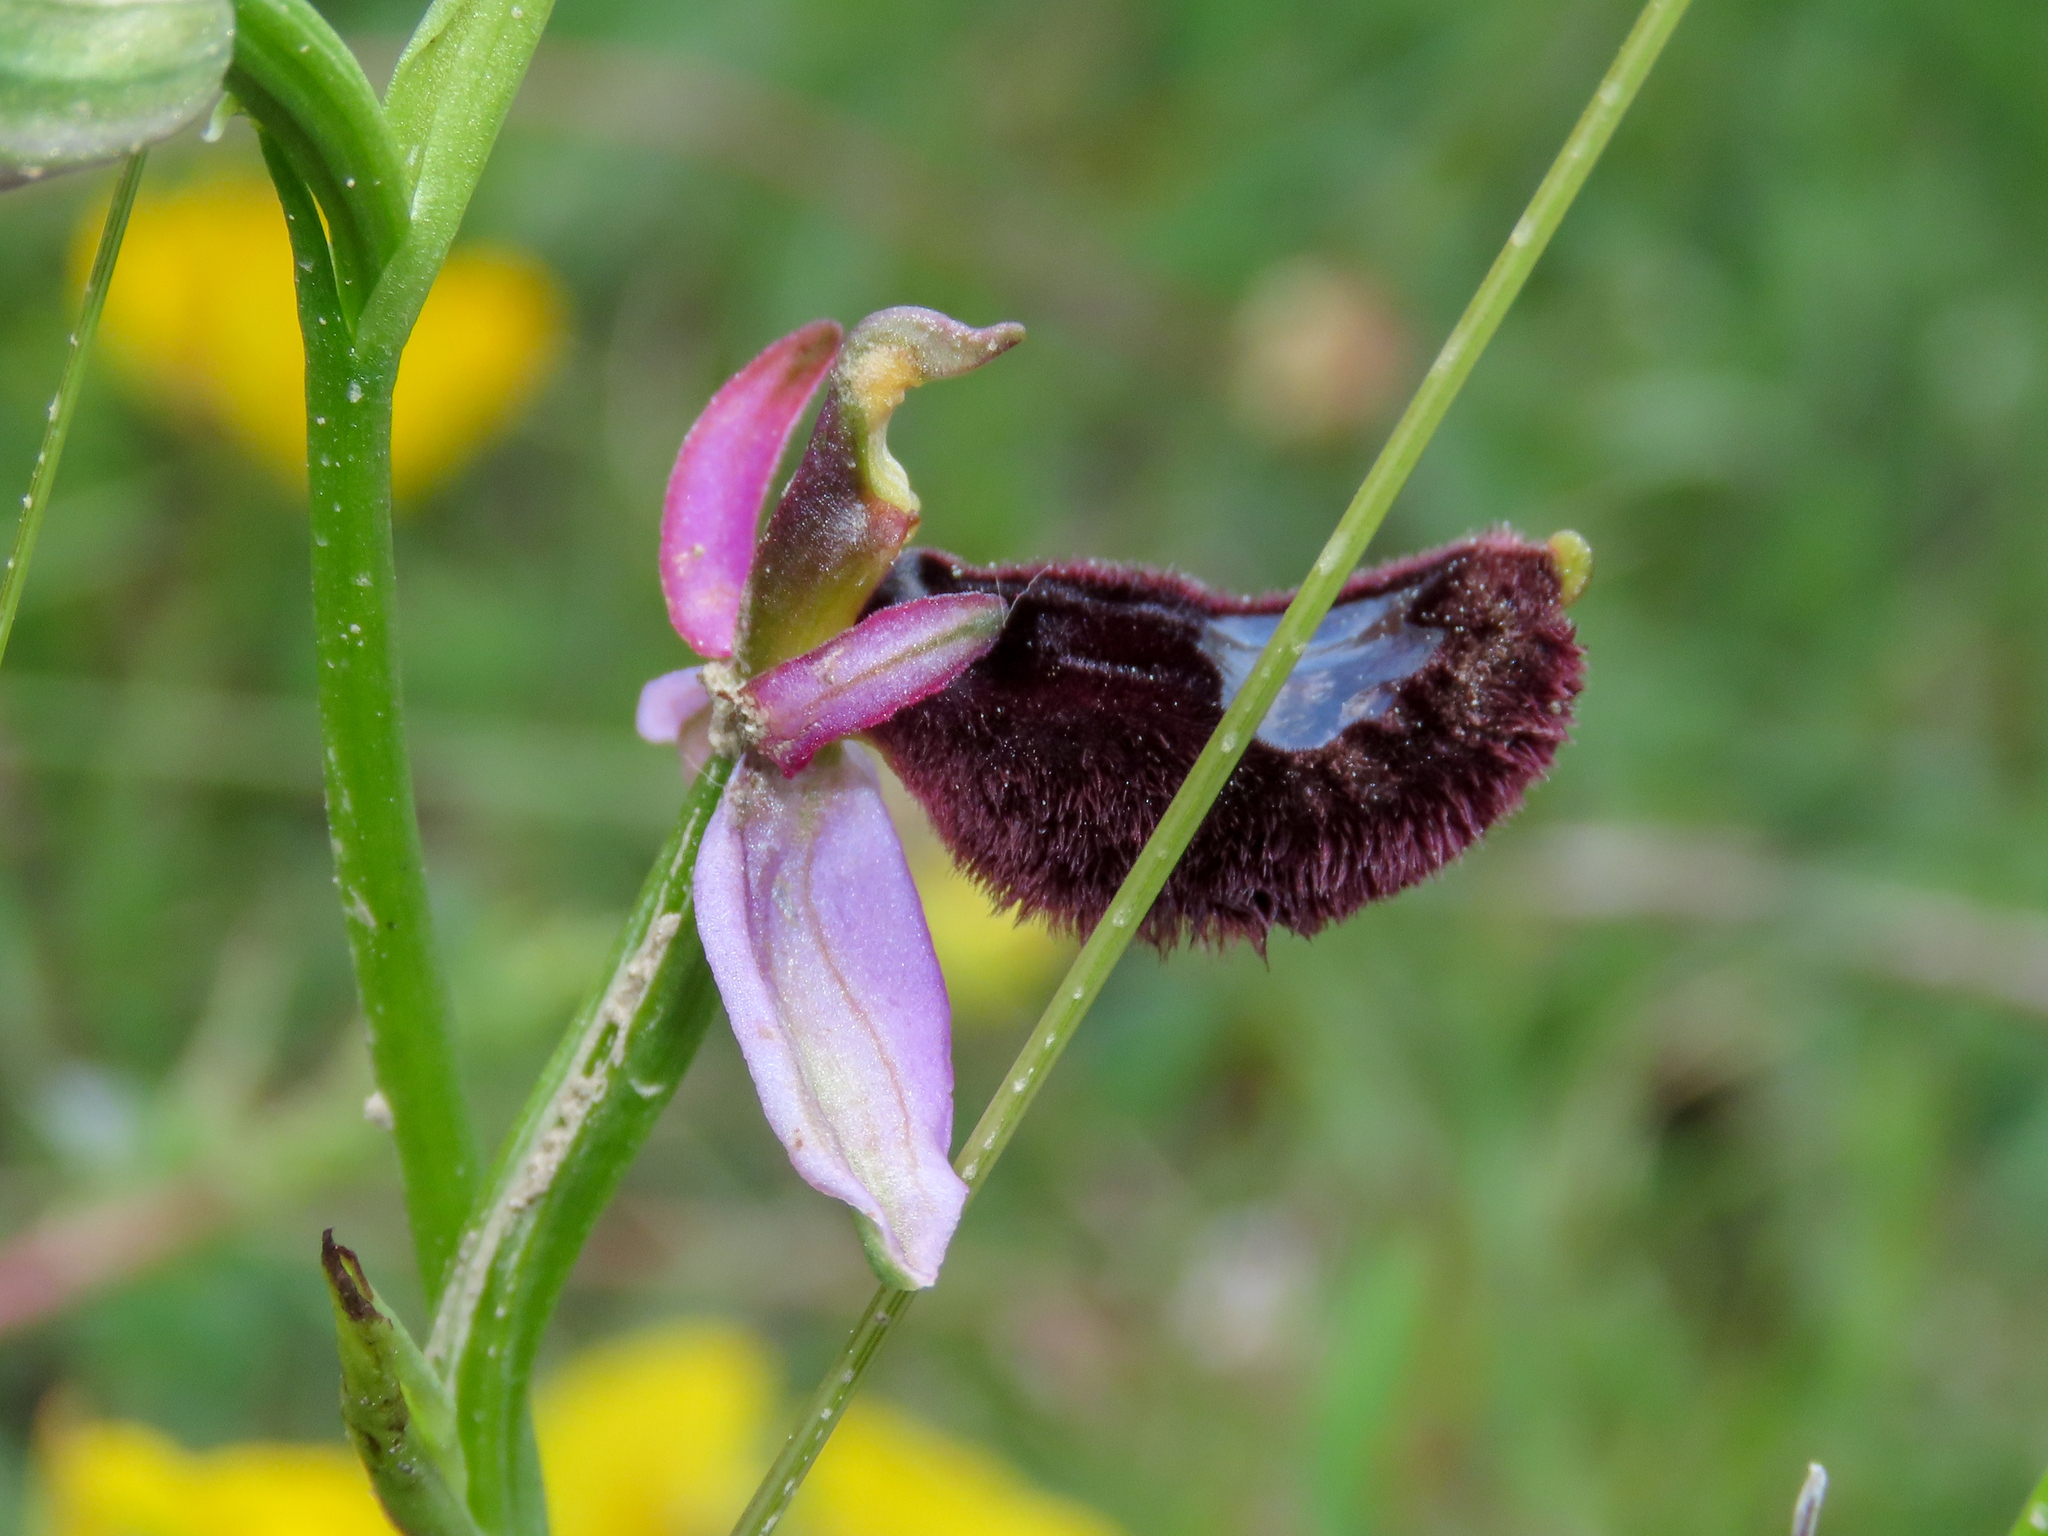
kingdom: Plantae
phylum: Tracheophyta
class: Liliopsida
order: Asparagales
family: Orchidaceae
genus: Ophrys
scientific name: Ophrys bertolonii
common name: Bertoloni's bee orchid
